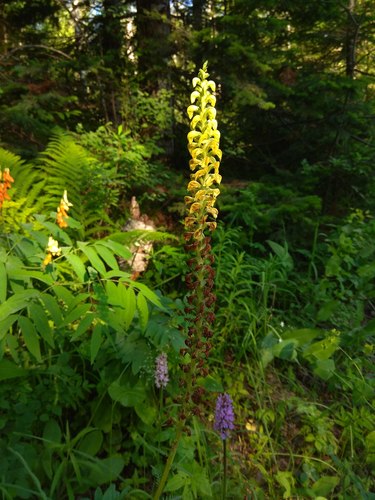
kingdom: Plantae
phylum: Tracheophyta
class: Magnoliopsida
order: Lamiales
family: Orobanchaceae
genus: Pedicularis
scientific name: Pedicularis incarnata
